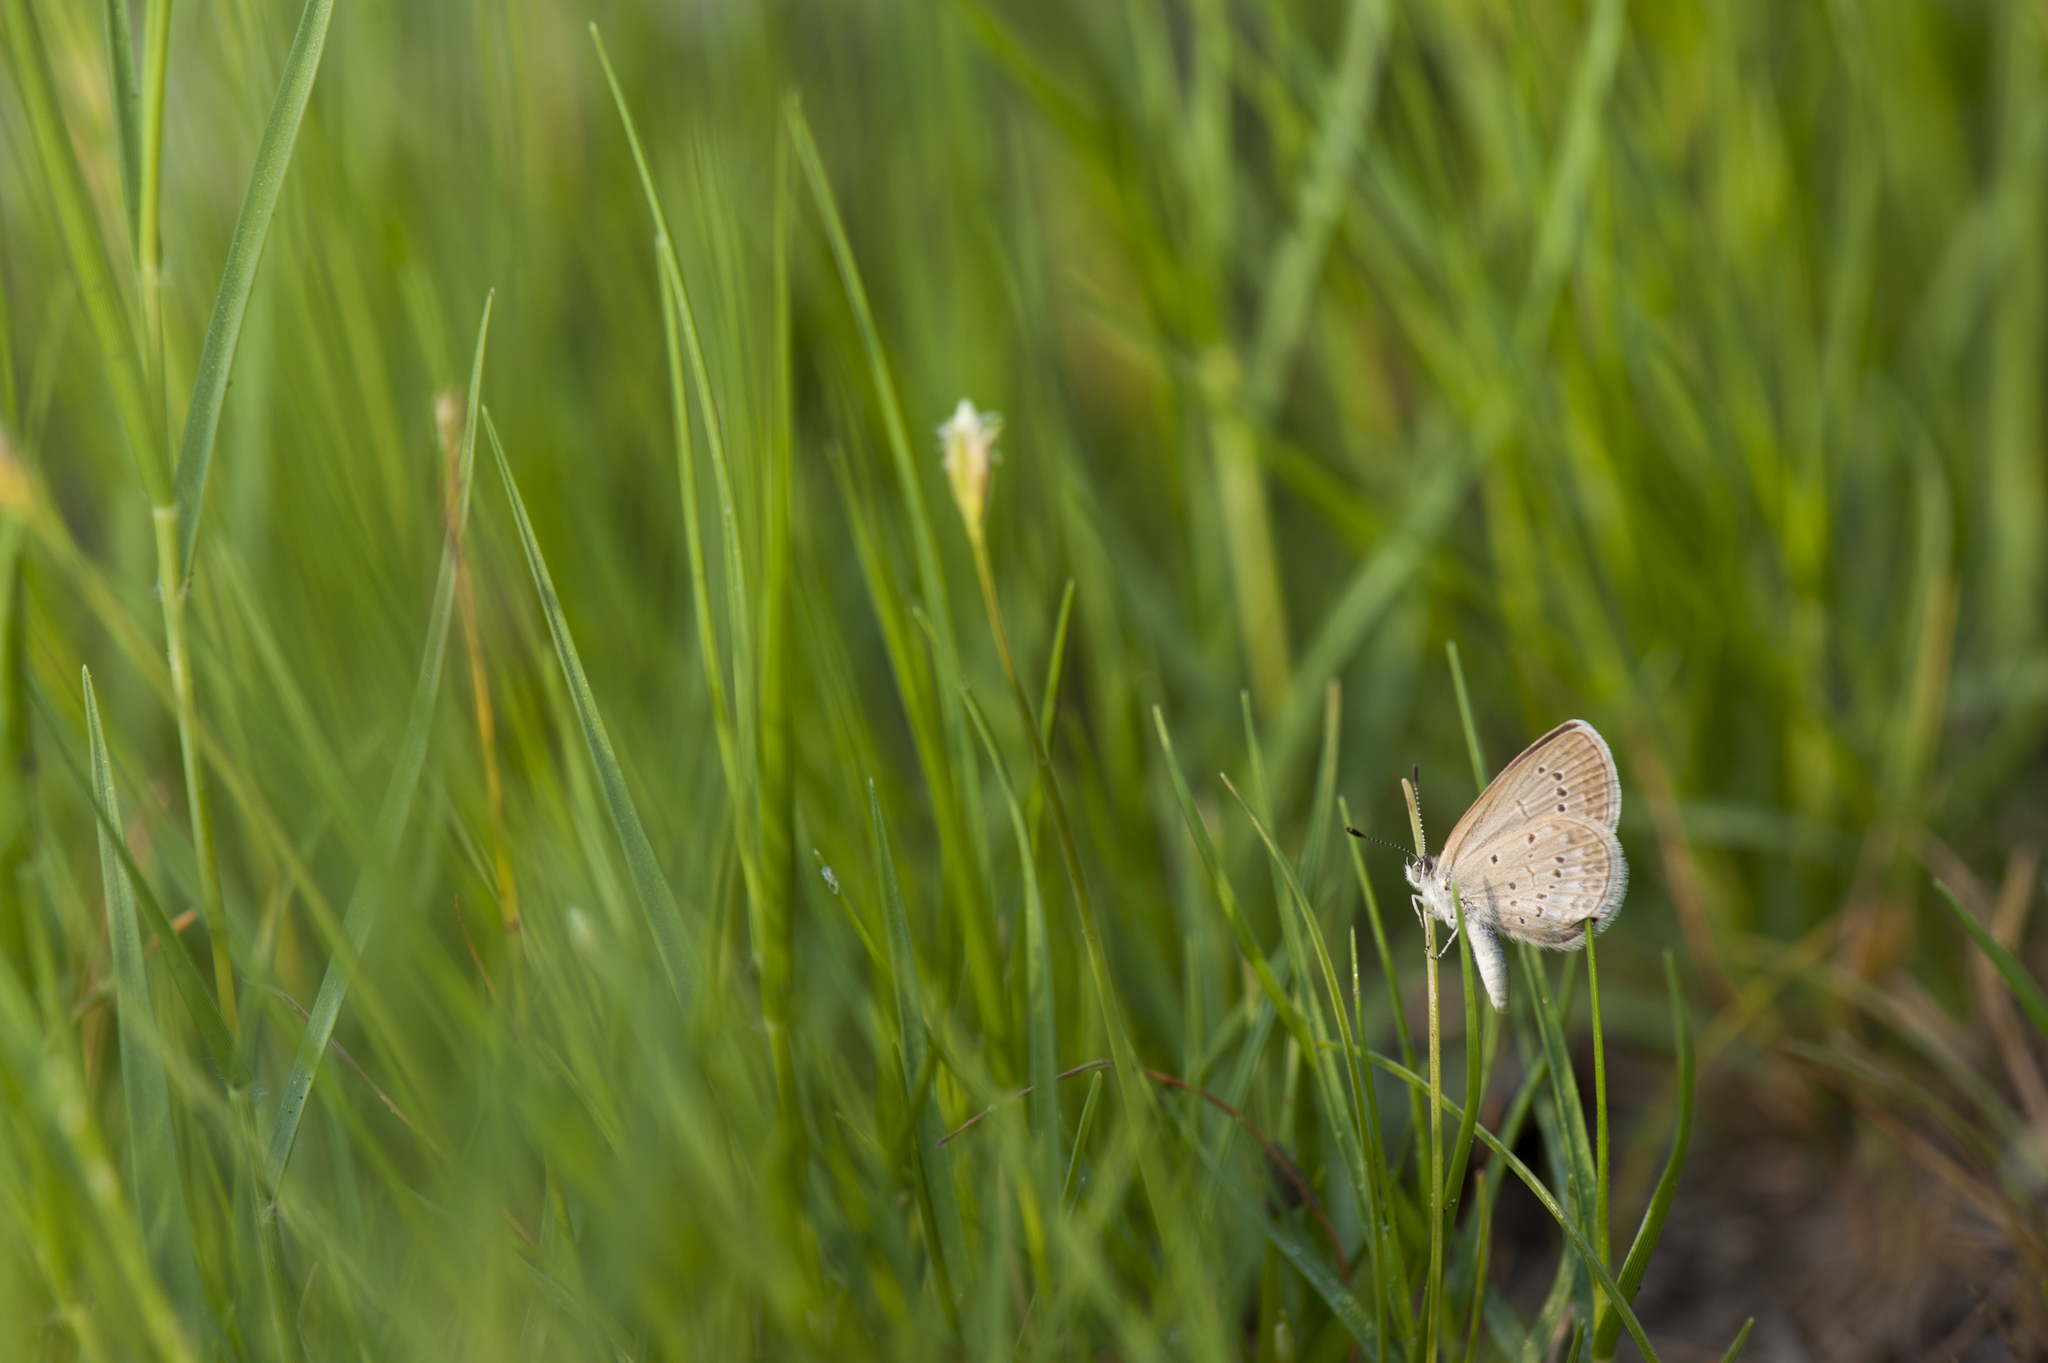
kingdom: Animalia
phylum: Arthropoda
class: Insecta
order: Lepidoptera
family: Lycaenidae
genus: Zizina
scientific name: Zizina otis
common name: Lesser grass blue
